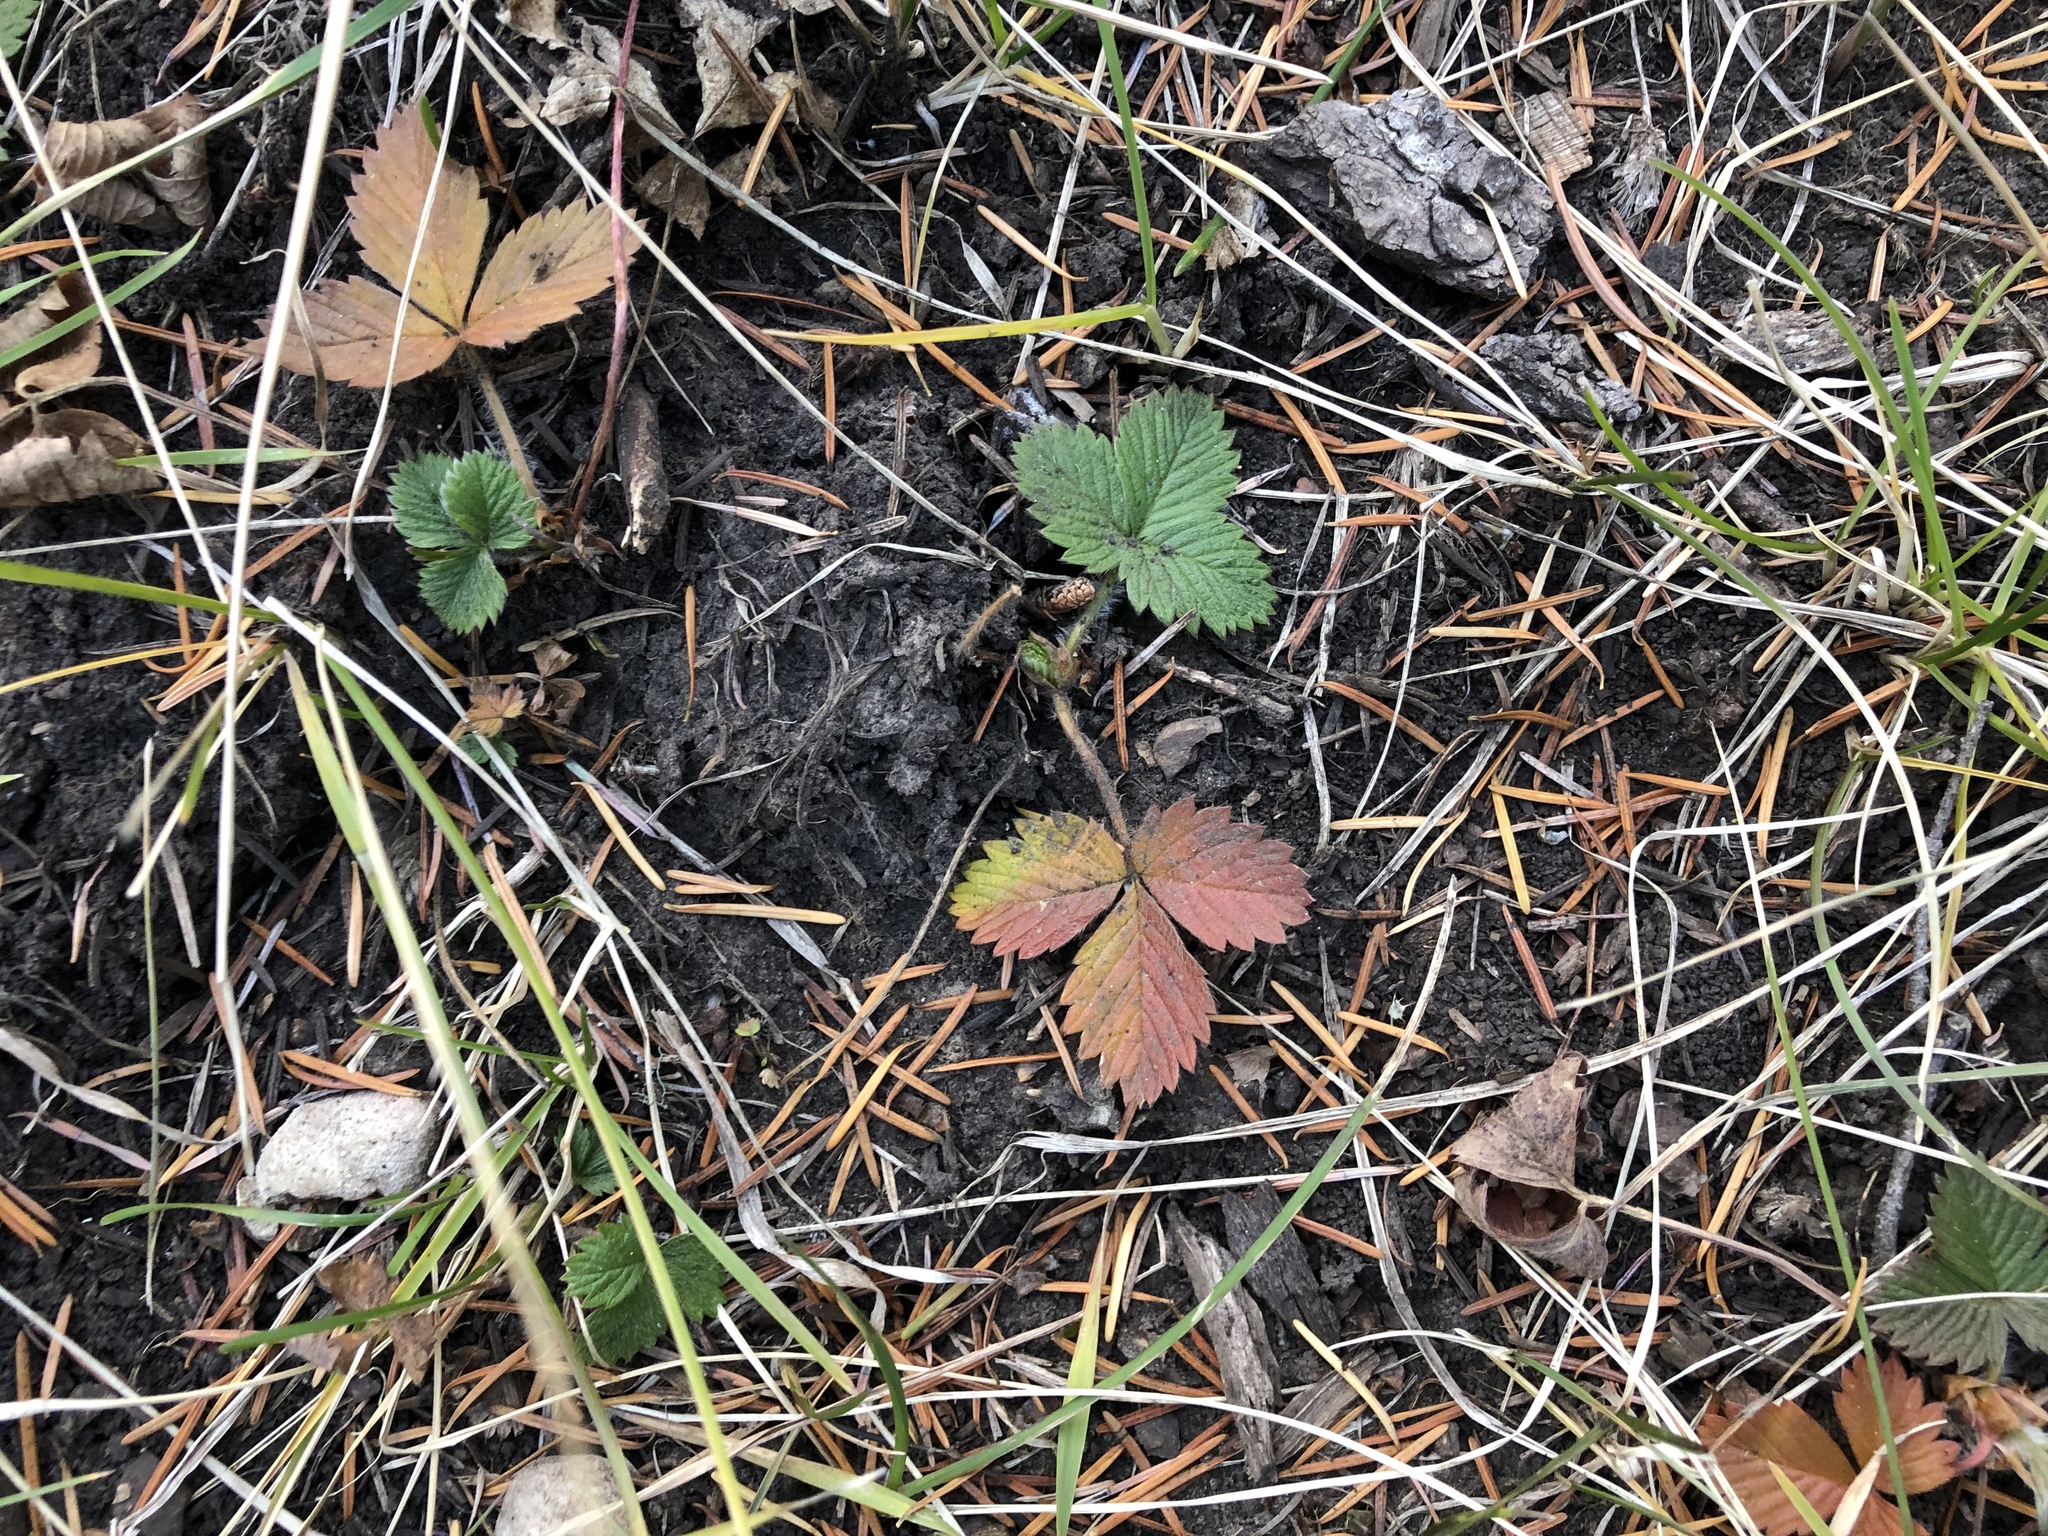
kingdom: Plantae
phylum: Tracheophyta
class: Magnoliopsida
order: Rosales
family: Rosaceae
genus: Fragaria
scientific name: Fragaria vesca
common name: Wild strawberry
